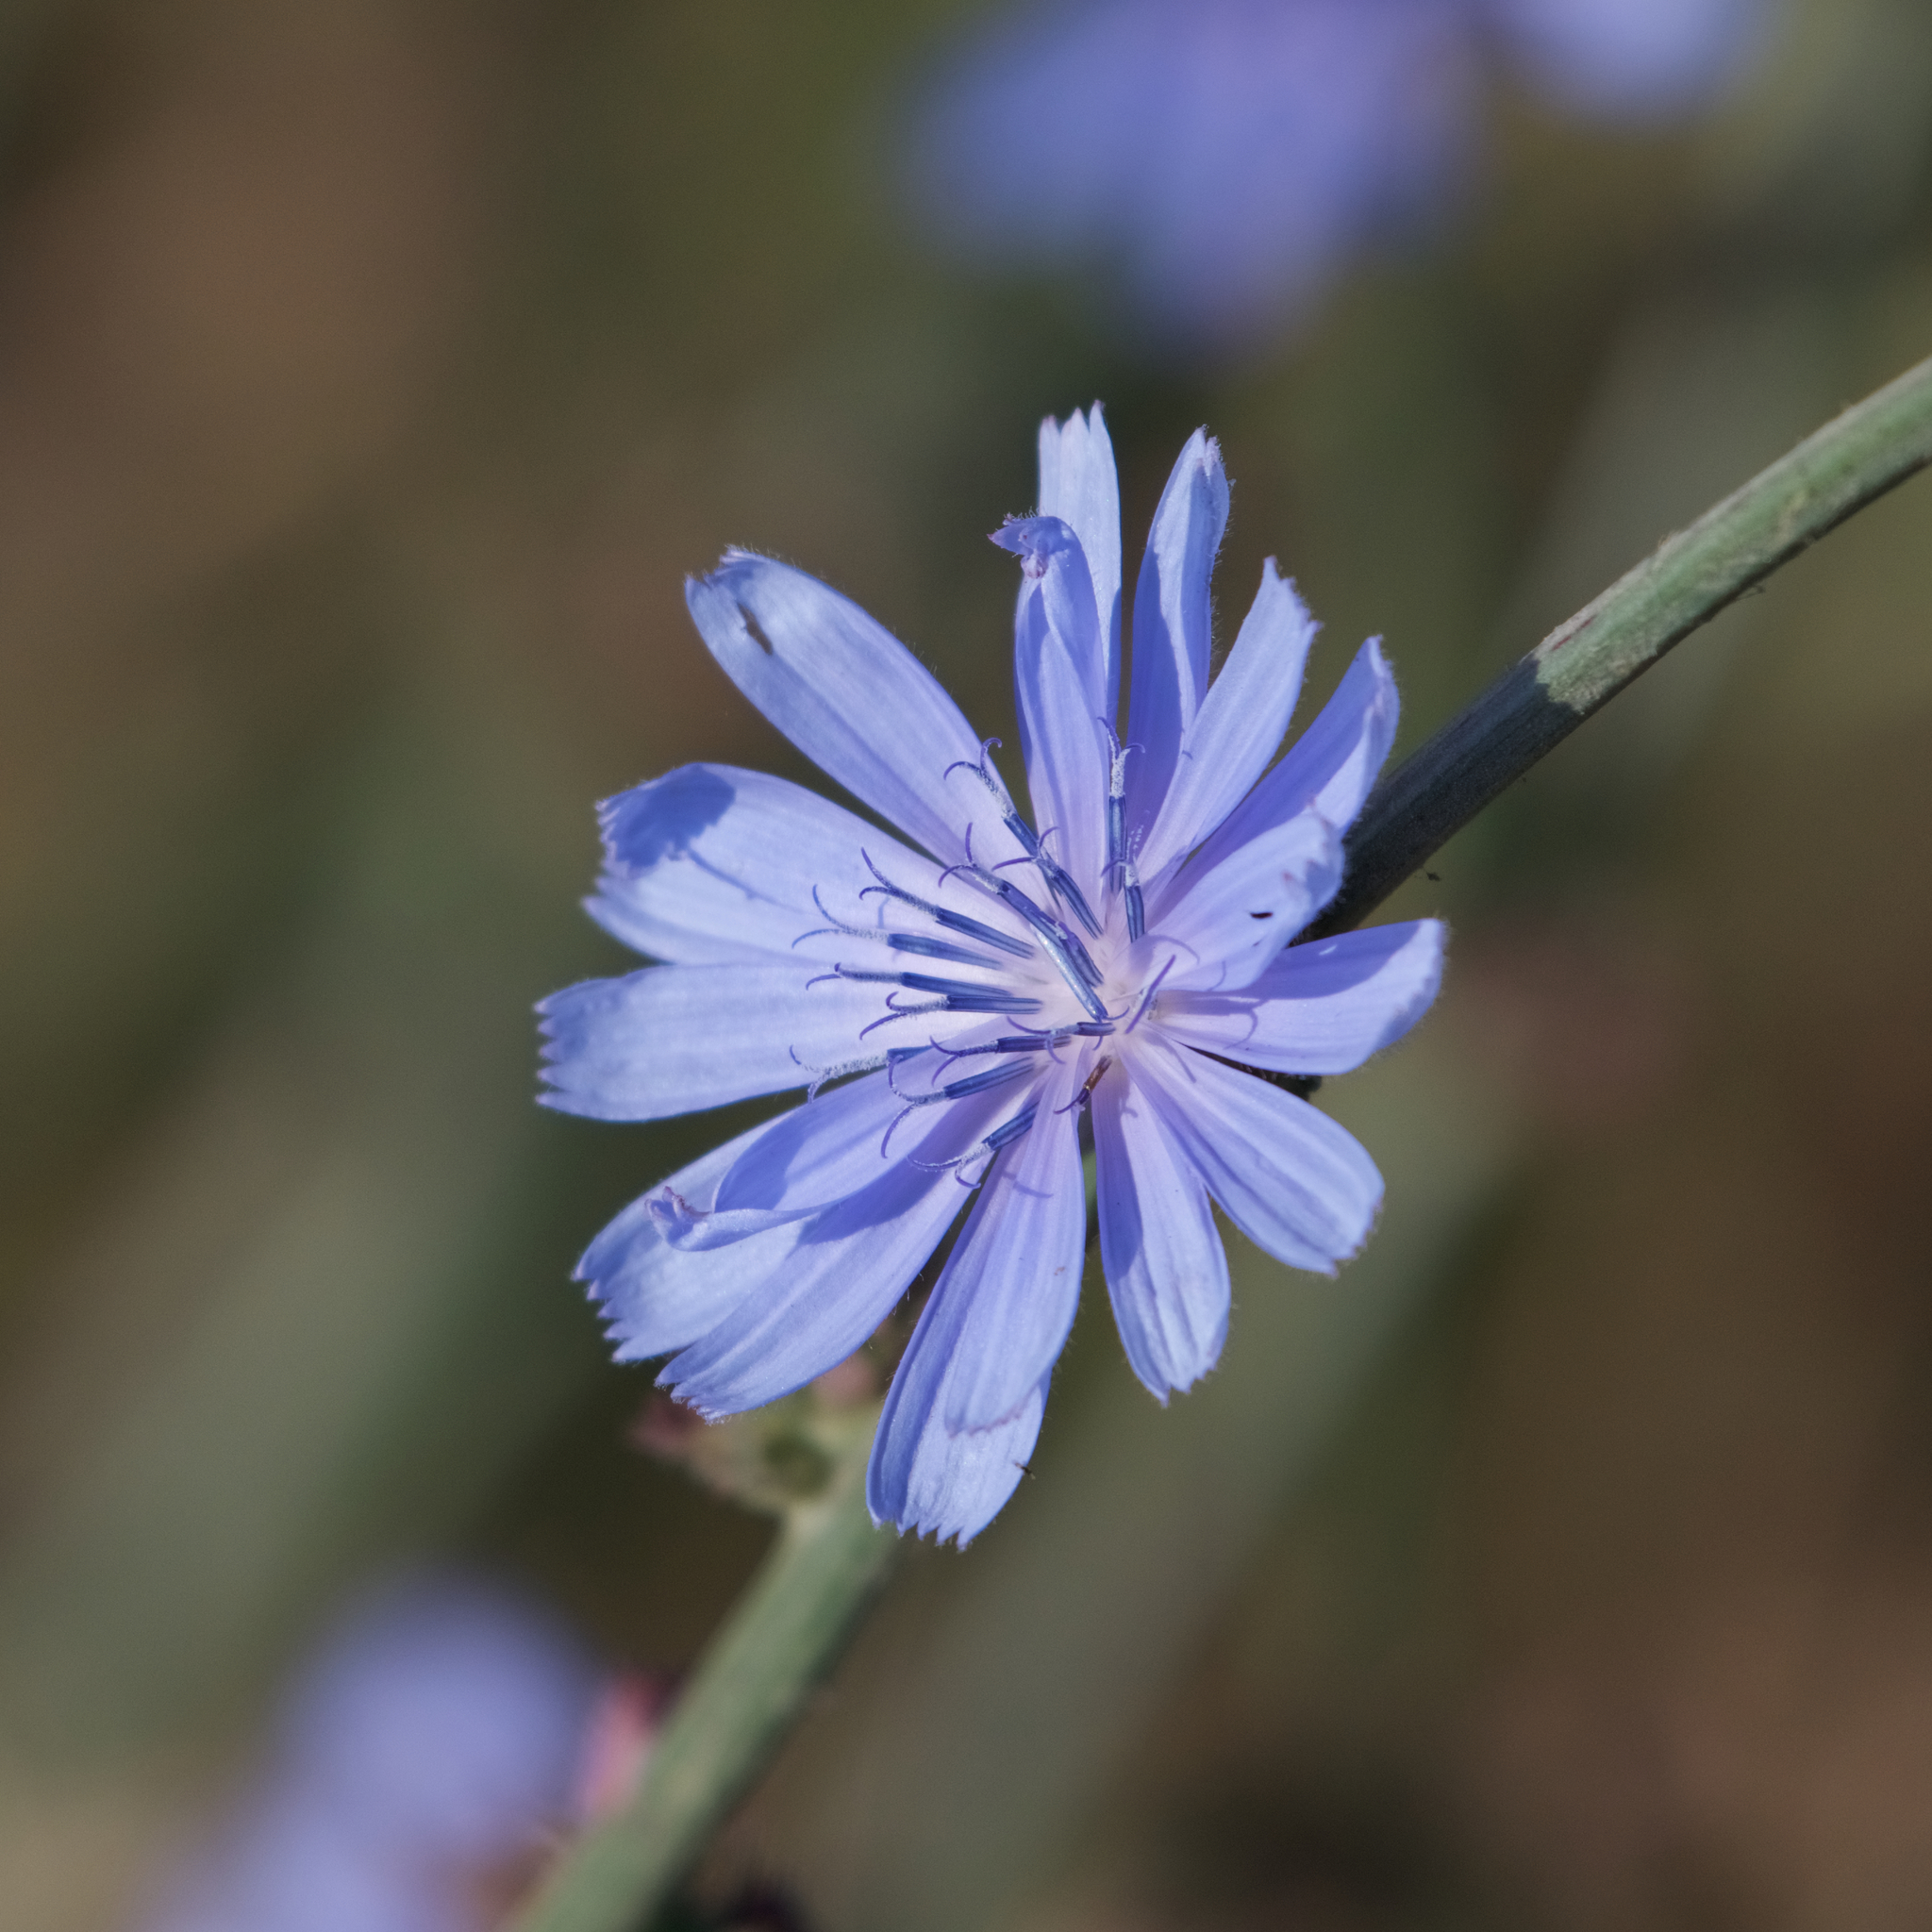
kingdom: Plantae
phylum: Tracheophyta
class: Magnoliopsida
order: Asterales
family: Asteraceae
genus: Cichorium
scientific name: Cichorium intybus
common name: Chicory
